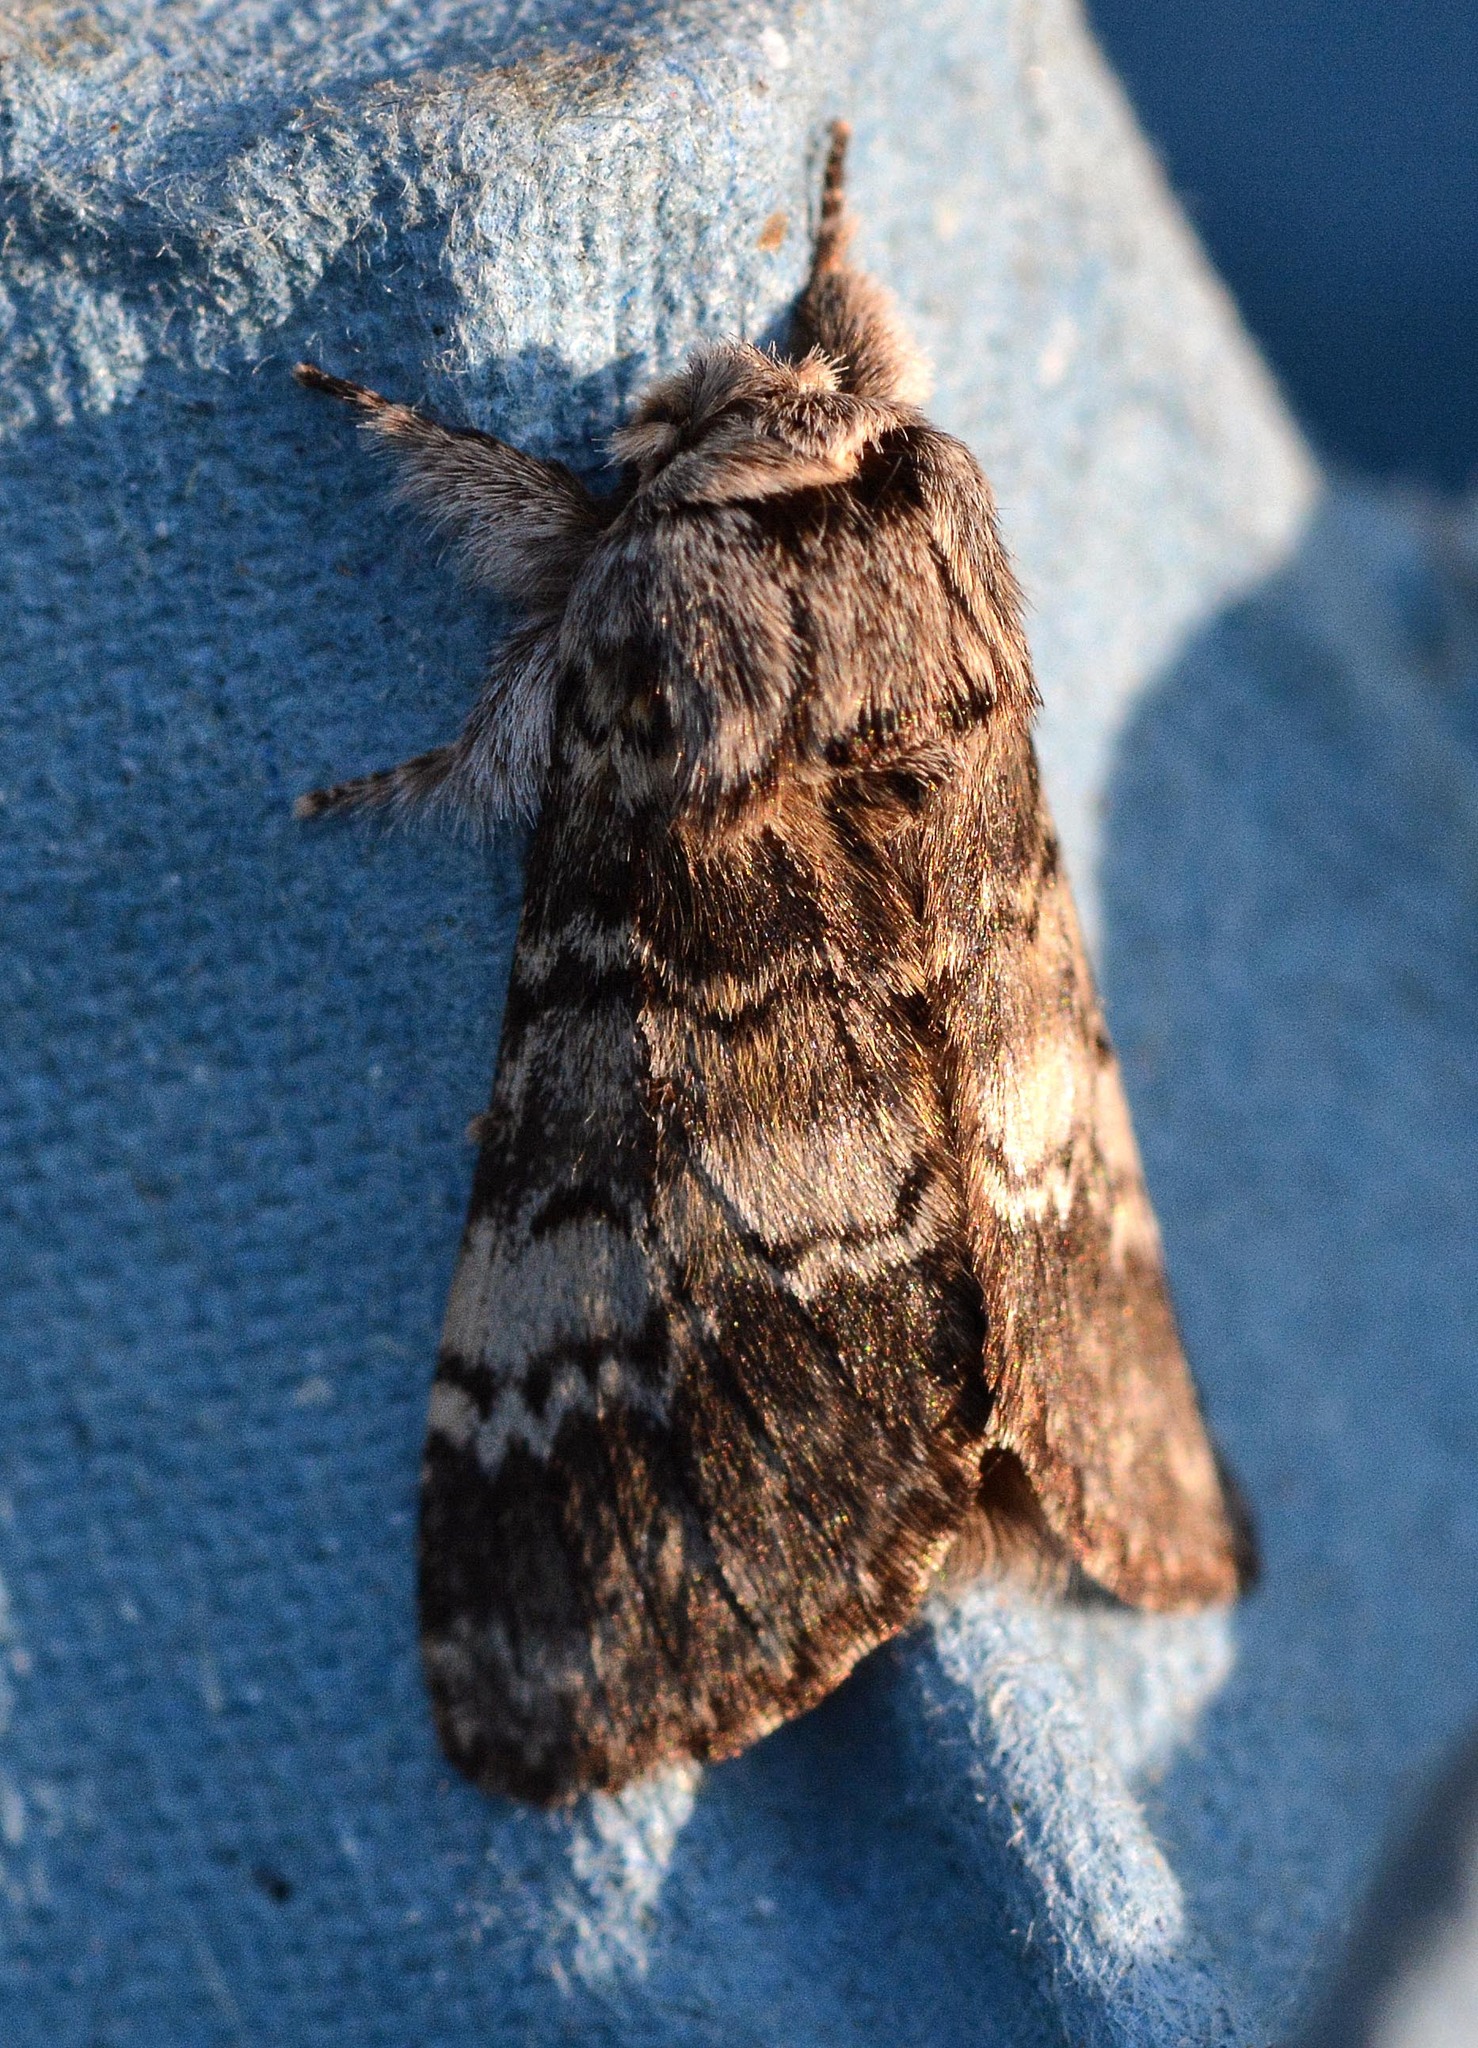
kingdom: Animalia
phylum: Arthropoda
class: Insecta
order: Lepidoptera
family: Notodontidae
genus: Drymonia
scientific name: Drymonia ruficornis
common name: Lunar marbled brown
